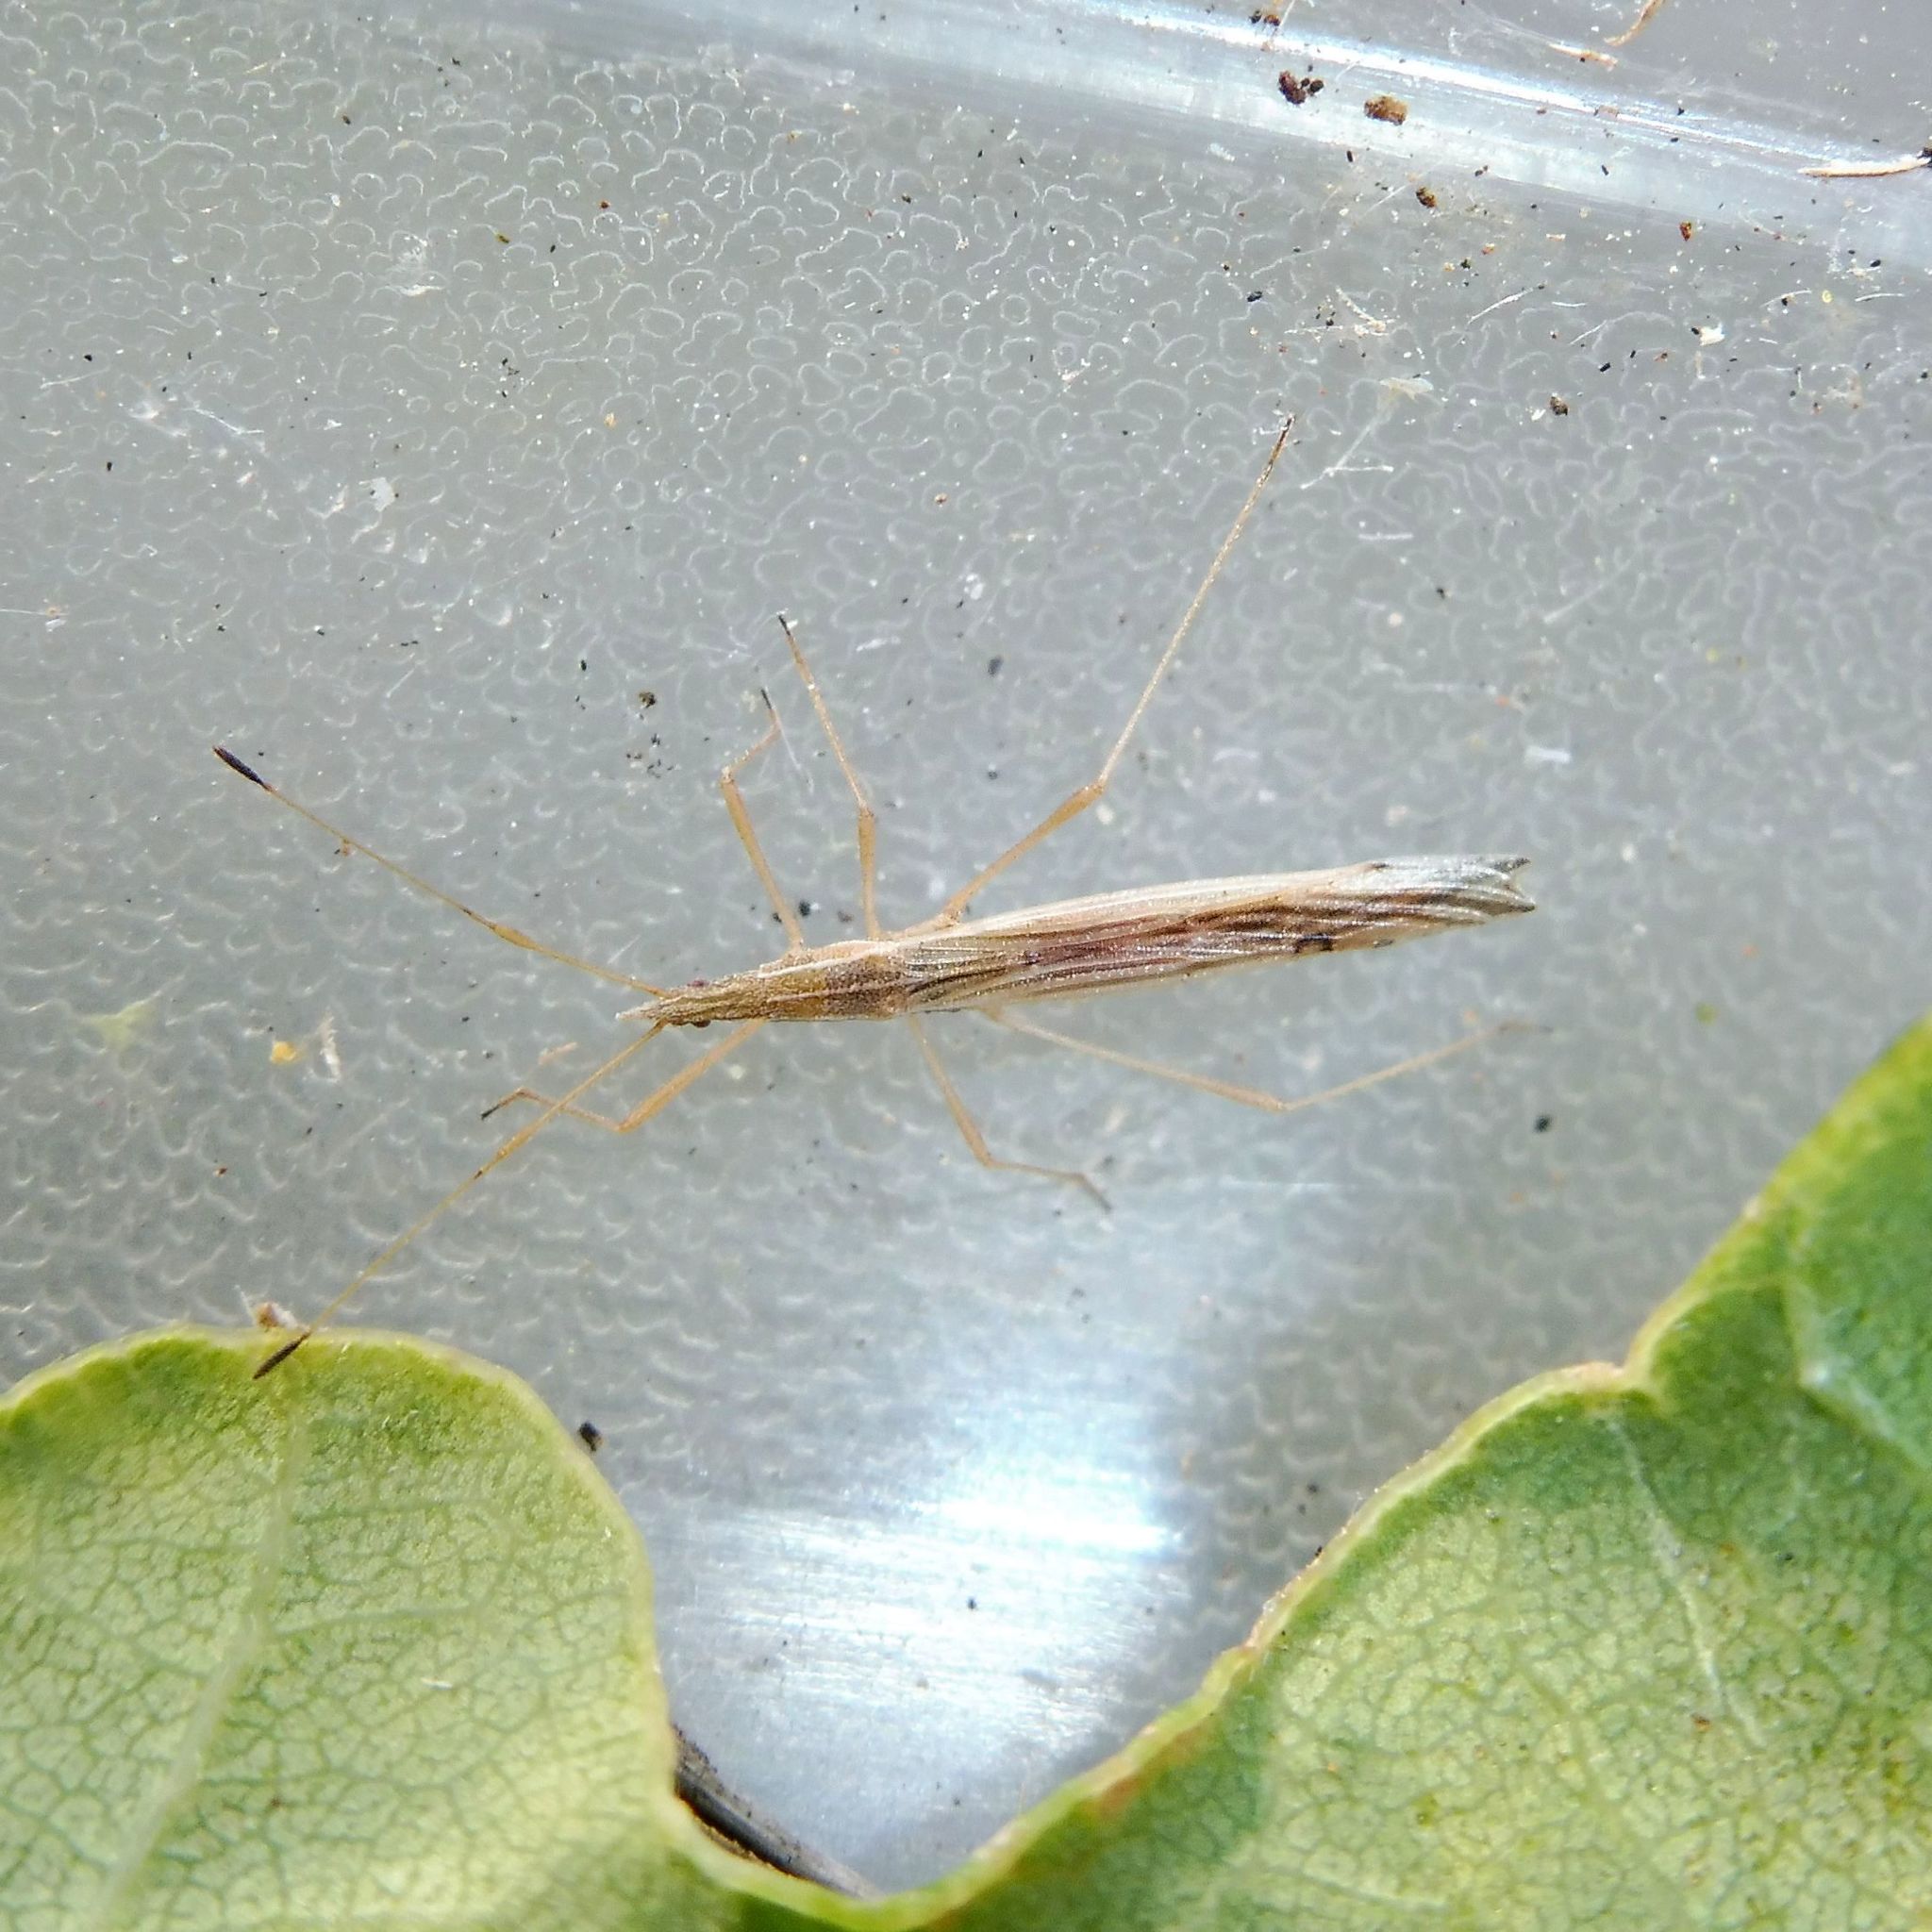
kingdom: Animalia
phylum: Arthropoda
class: Insecta
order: Hemiptera
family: Berytidae
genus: Berytinus
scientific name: Berytinus hirticornis
